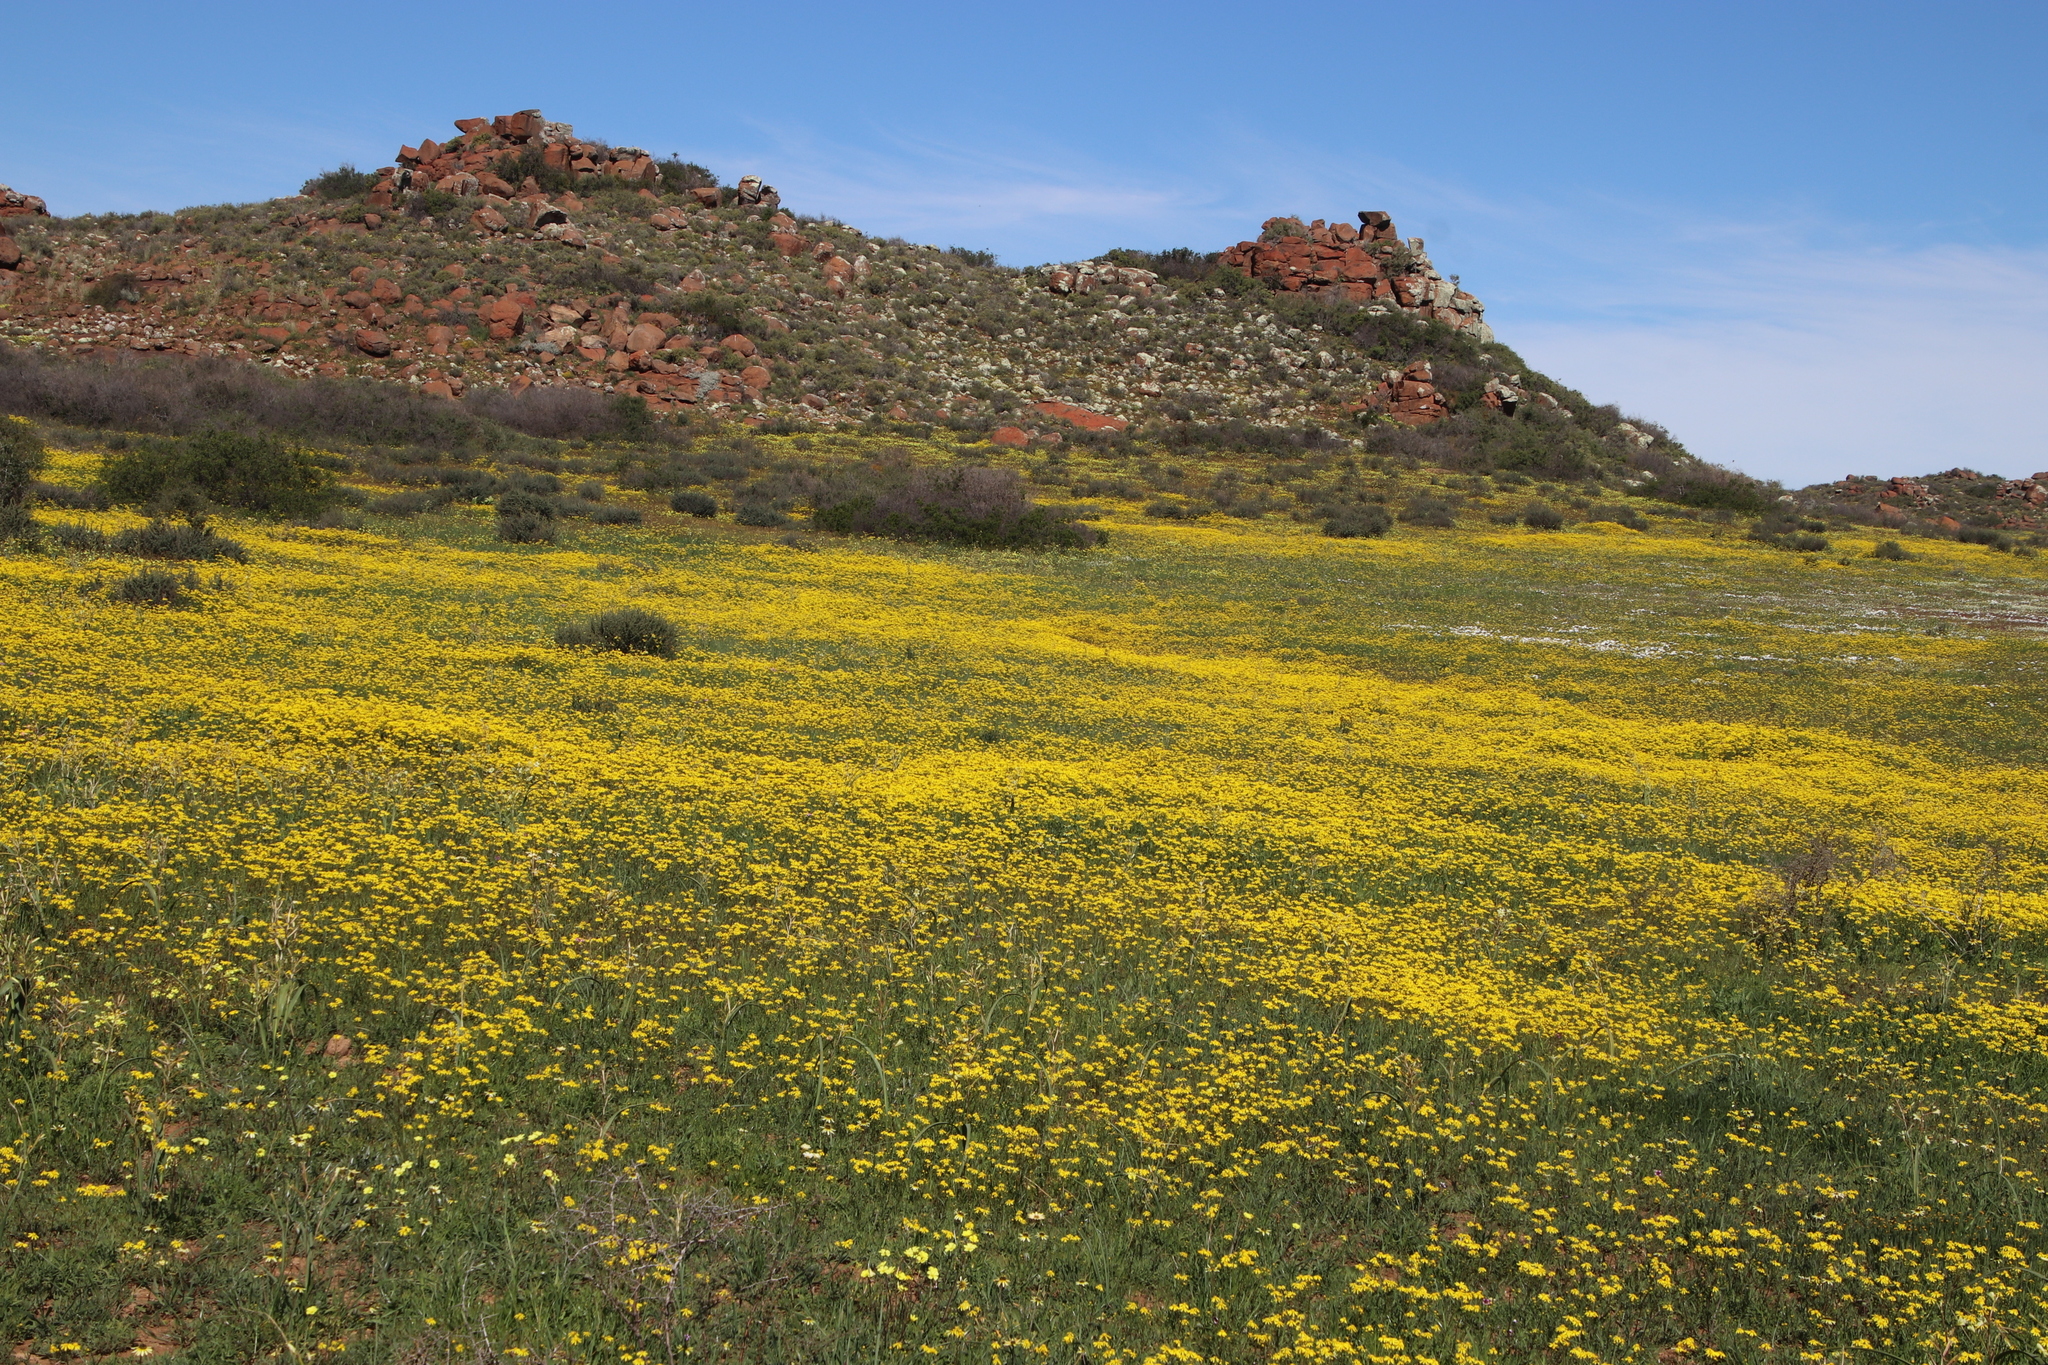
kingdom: Plantae
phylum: Tracheophyta
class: Magnoliopsida
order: Asterales
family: Asteraceae
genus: Senecio
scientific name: Senecio abruptus
